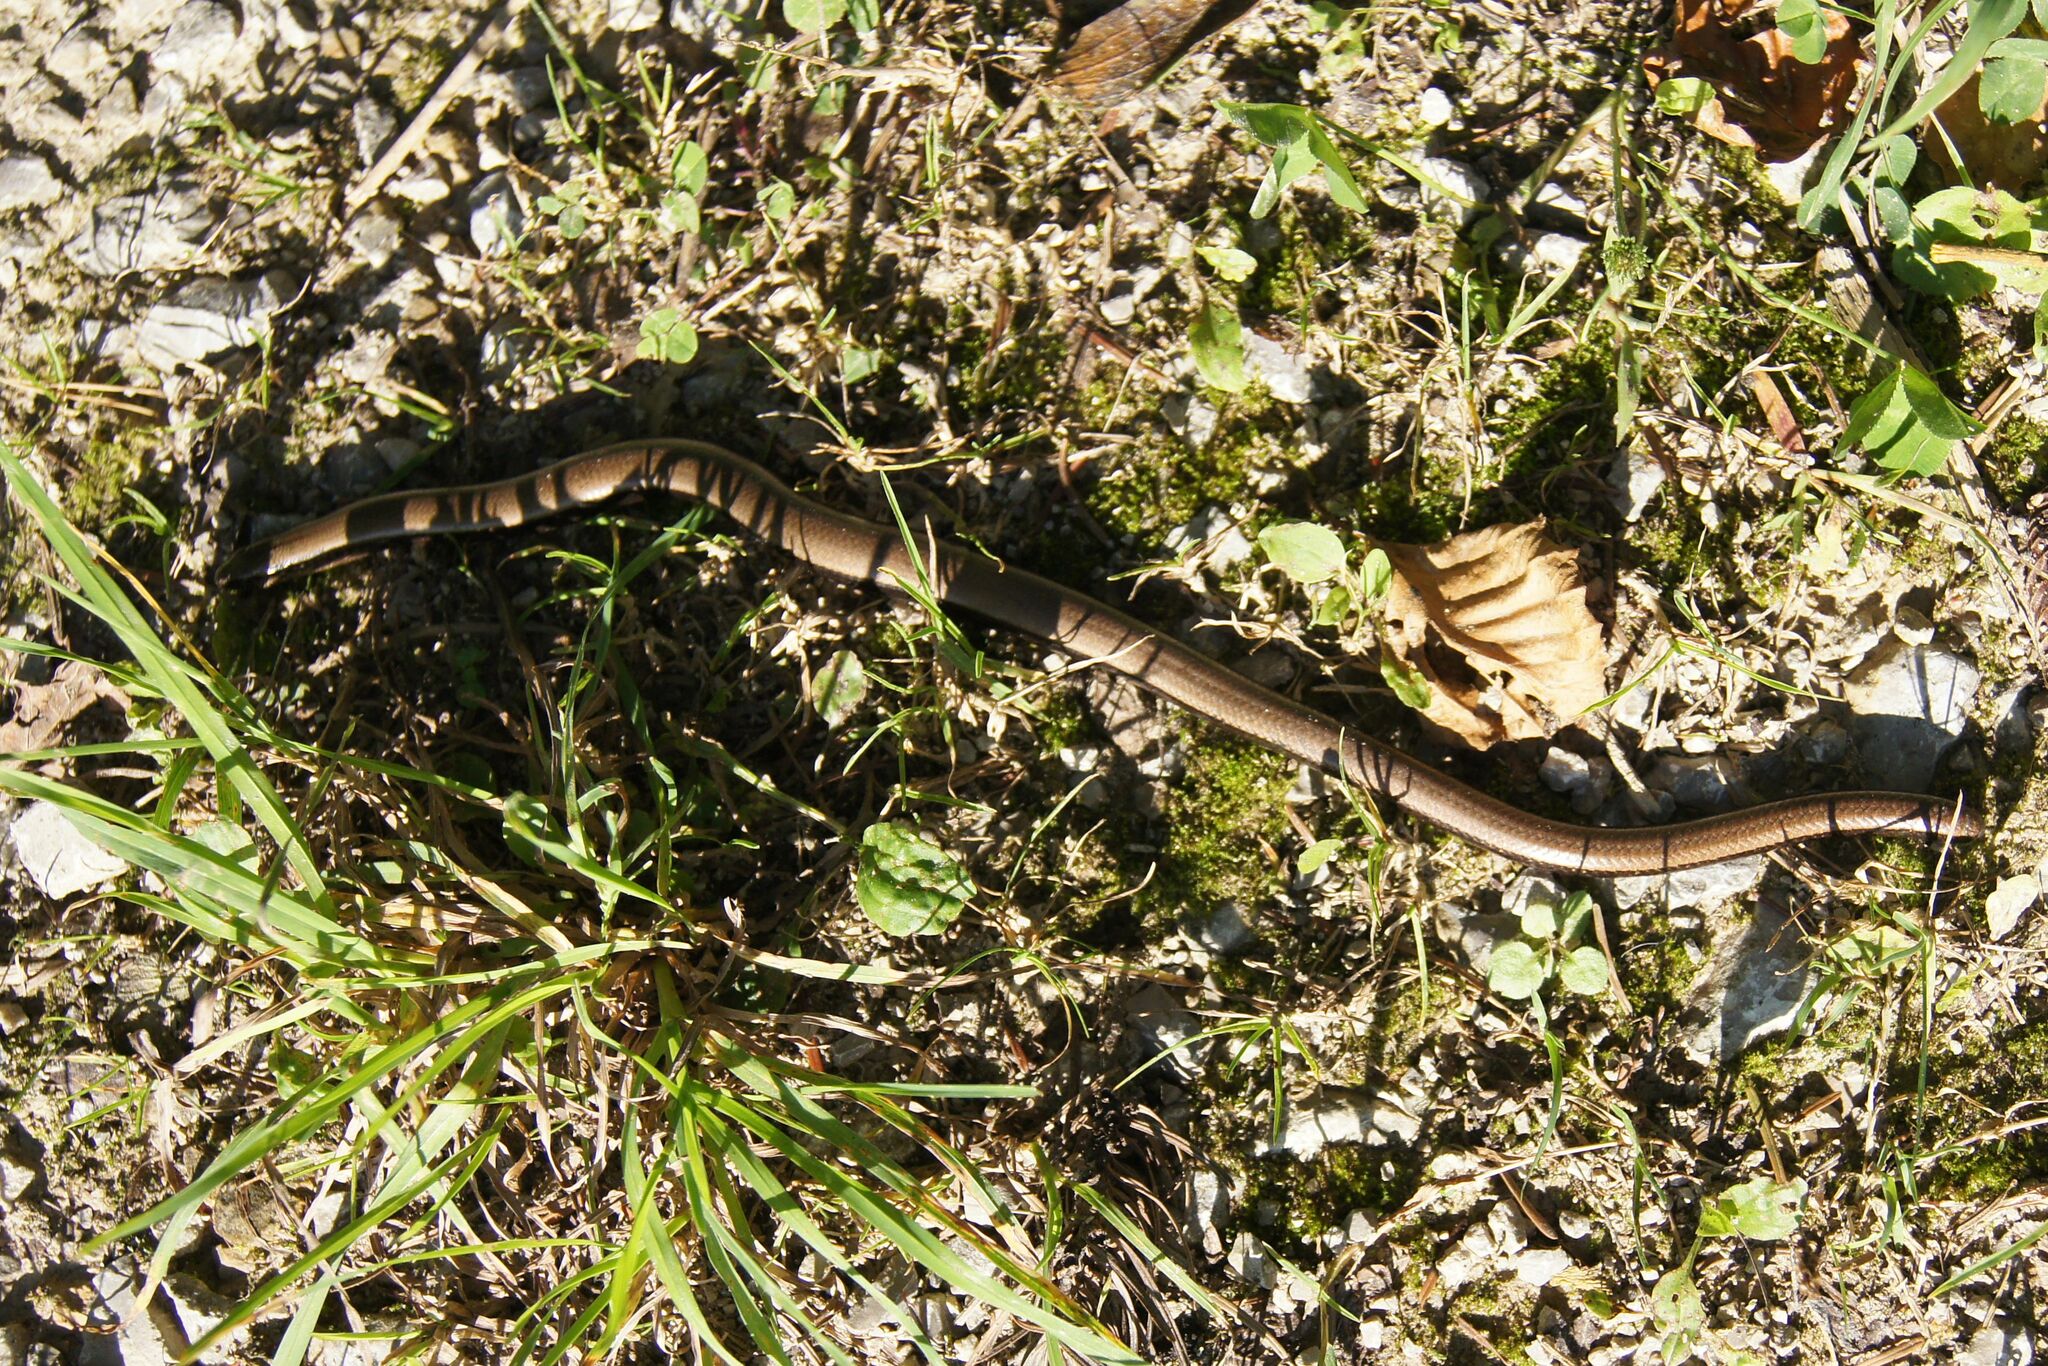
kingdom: Animalia
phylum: Chordata
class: Squamata
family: Anguidae
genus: Anguis
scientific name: Anguis fragilis
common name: Slow worm
